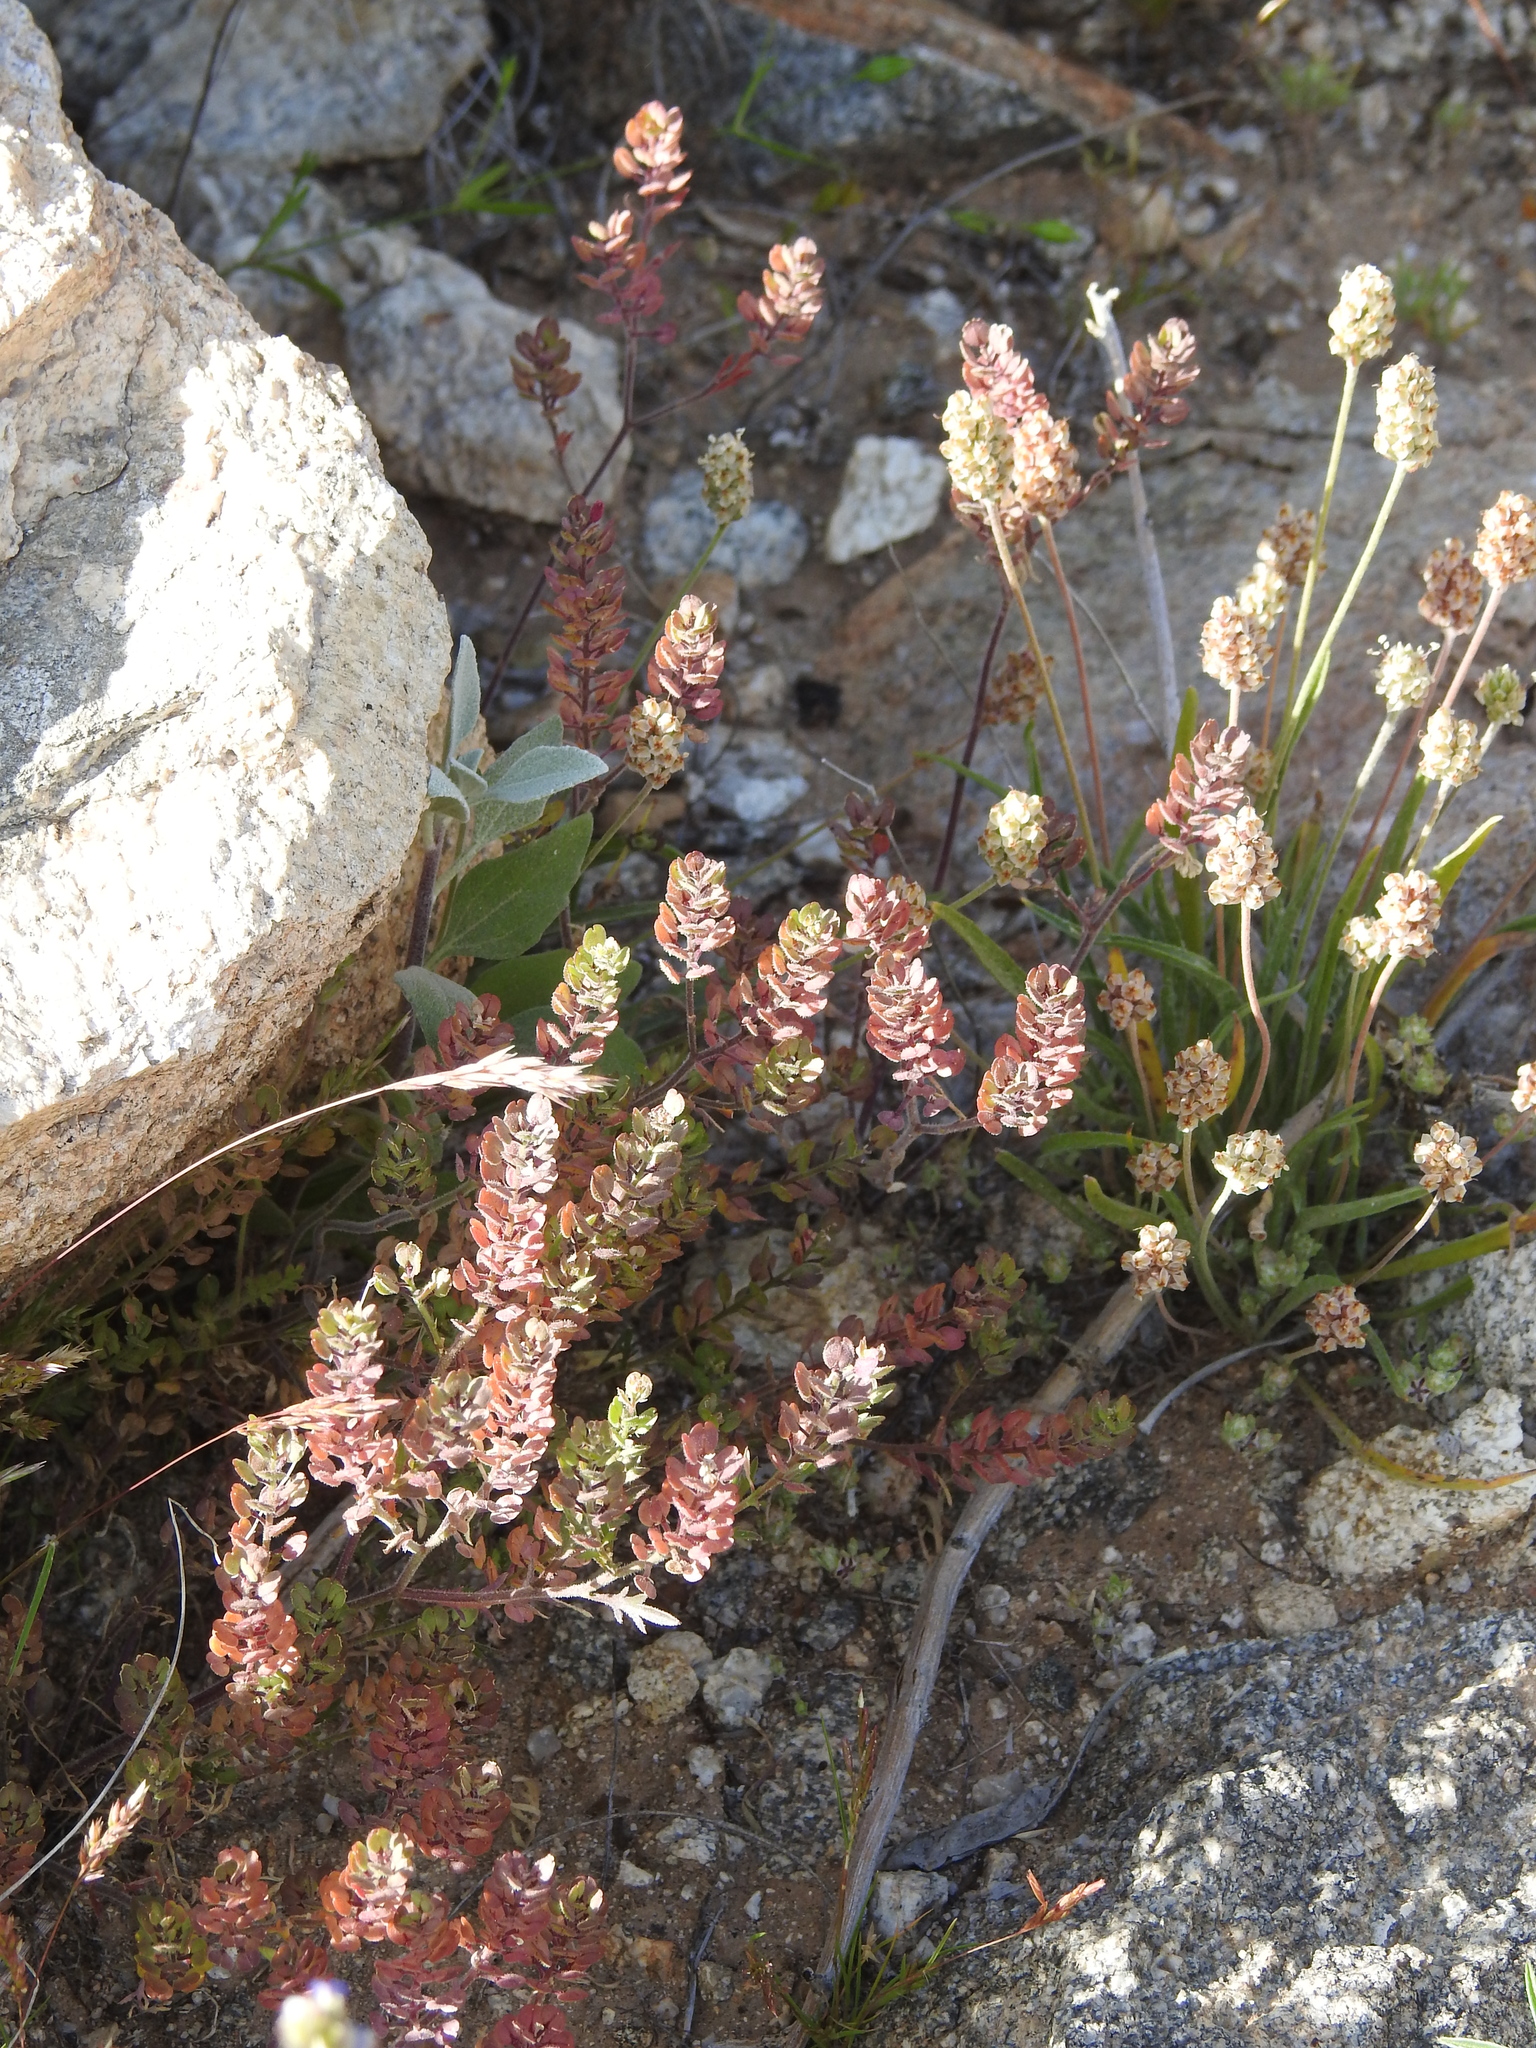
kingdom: Plantae
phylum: Tracheophyta
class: Magnoliopsida
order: Brassicales
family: Brassicaceae
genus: Lepidium
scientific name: Lepidium lasiocarpum
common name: Hairy-pod pepperwort
